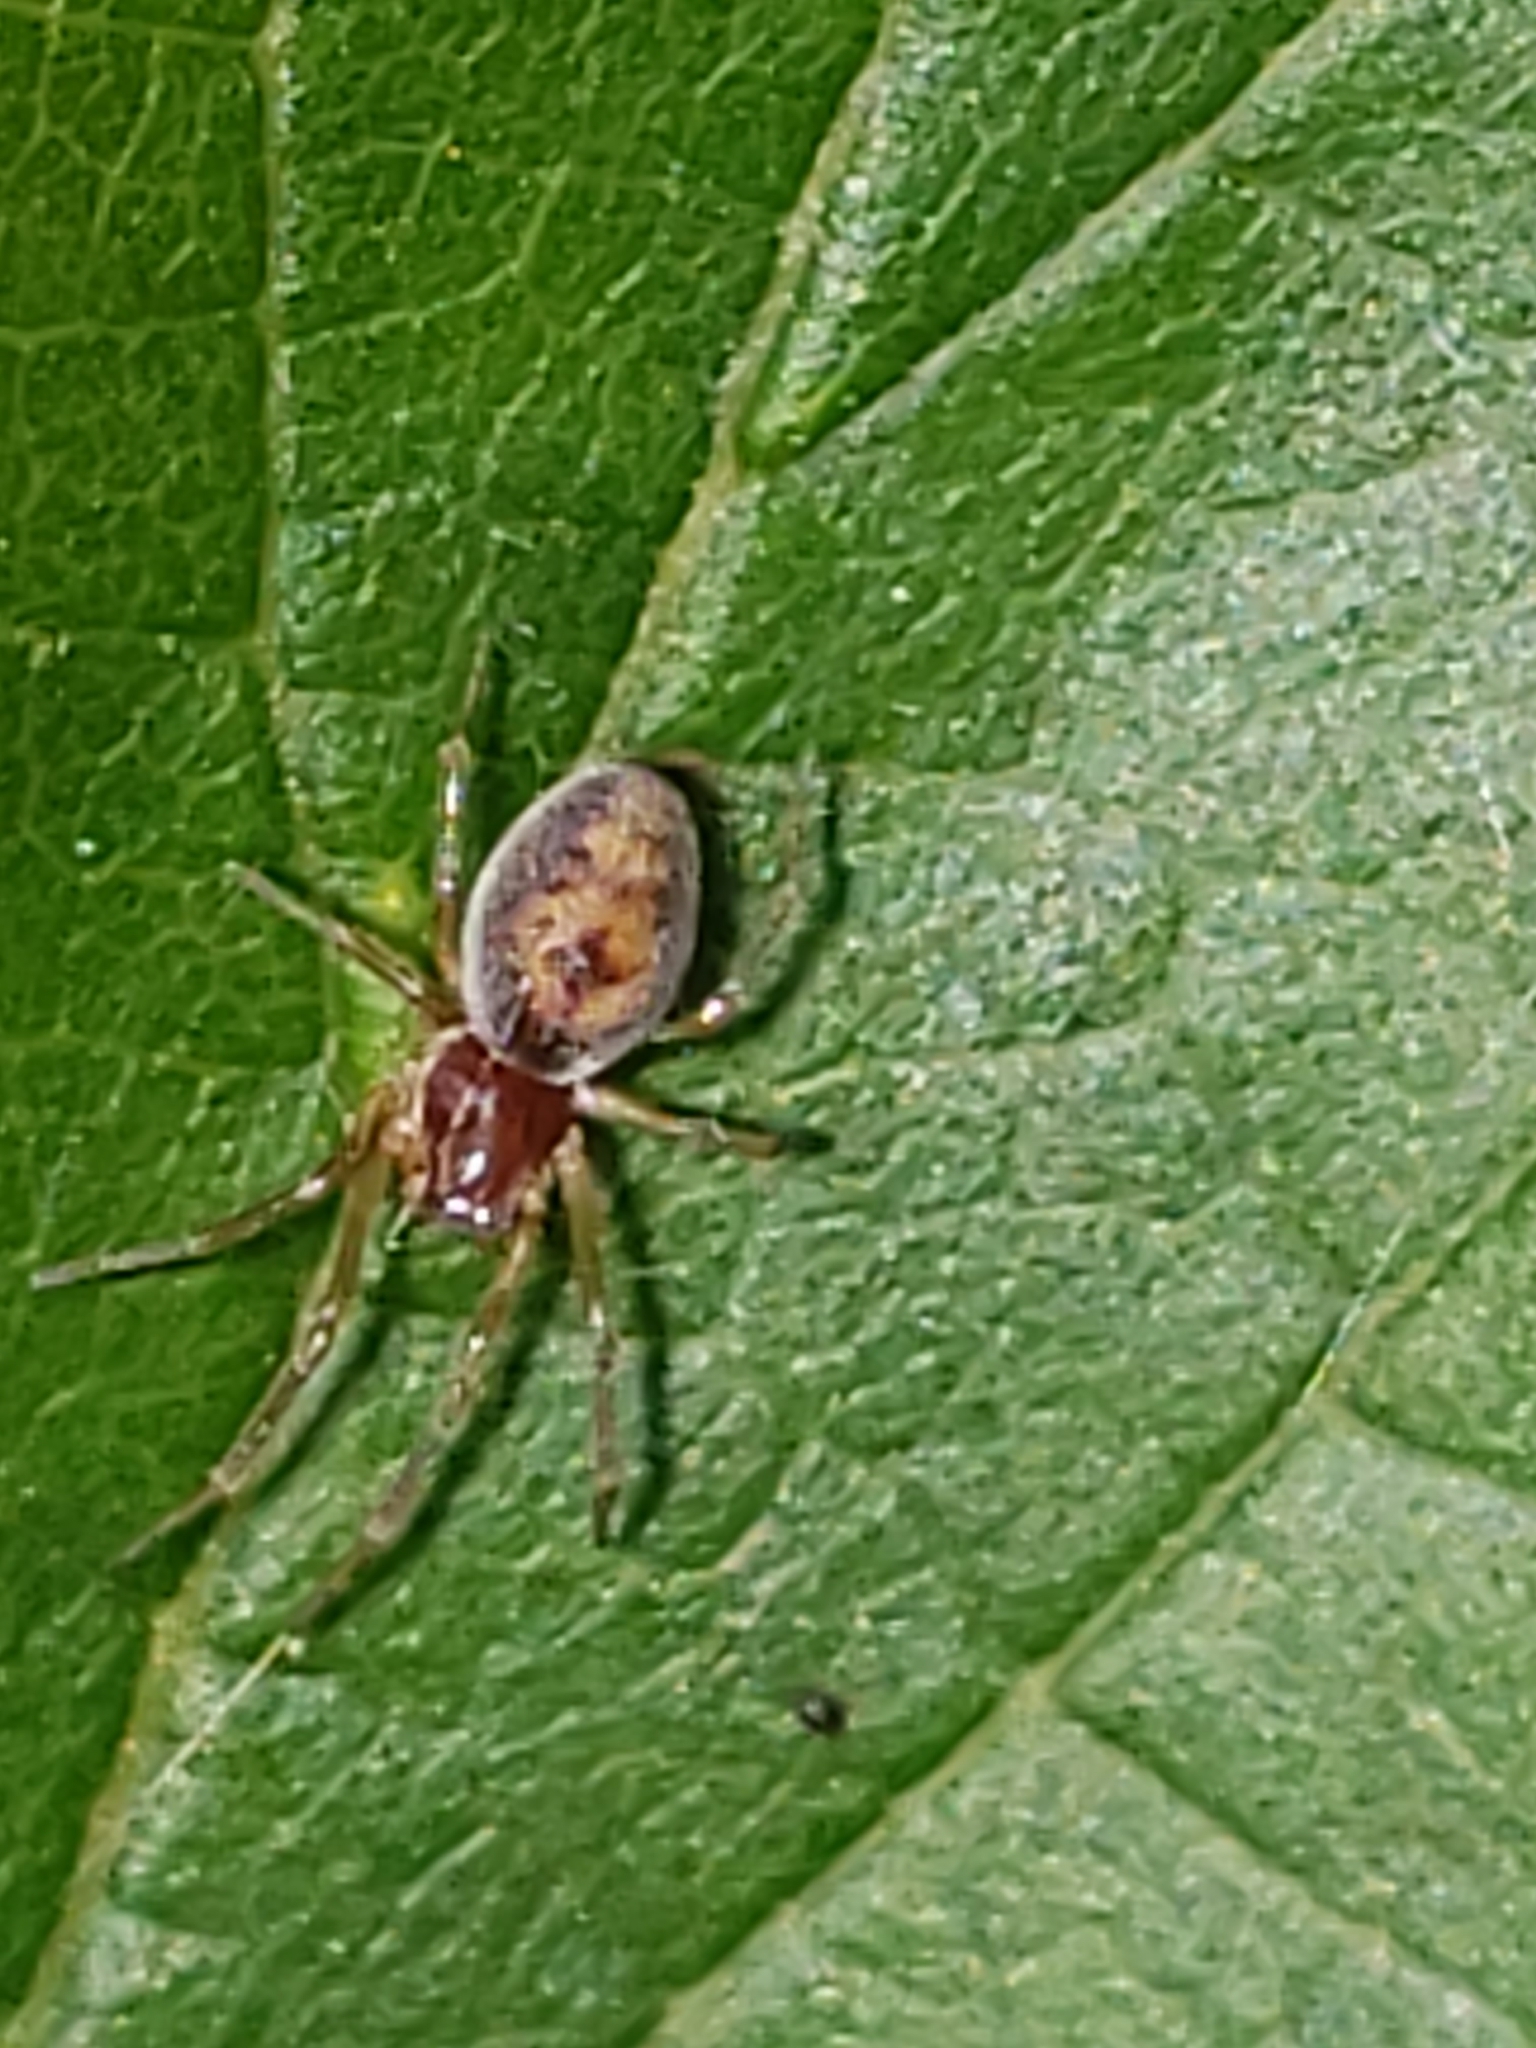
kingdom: Animalia
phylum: Arthropoda
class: Arachnida
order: Araneae
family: Dictynidae
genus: Emblyna
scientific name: Emblyna florens
